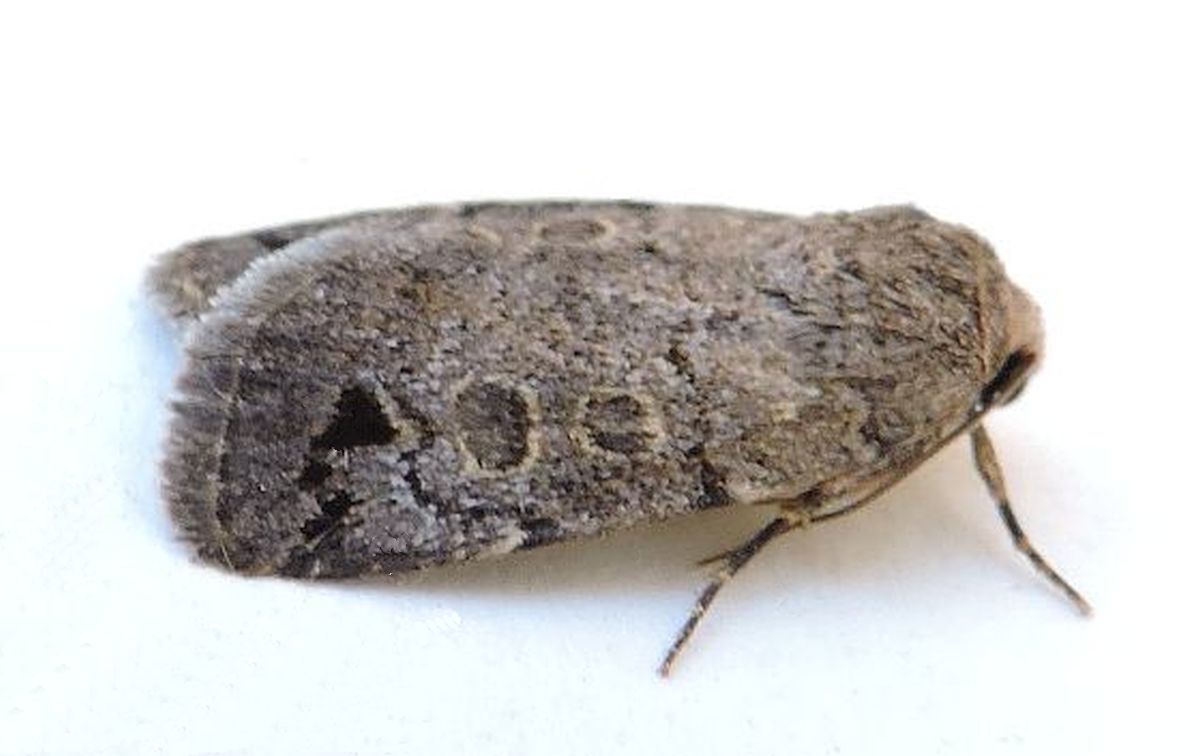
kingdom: Animalia
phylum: Arthropoda
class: Insecta
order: Lepidoptera
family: Noctuidae
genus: Anorthodes
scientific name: Anorthodes triquetra
